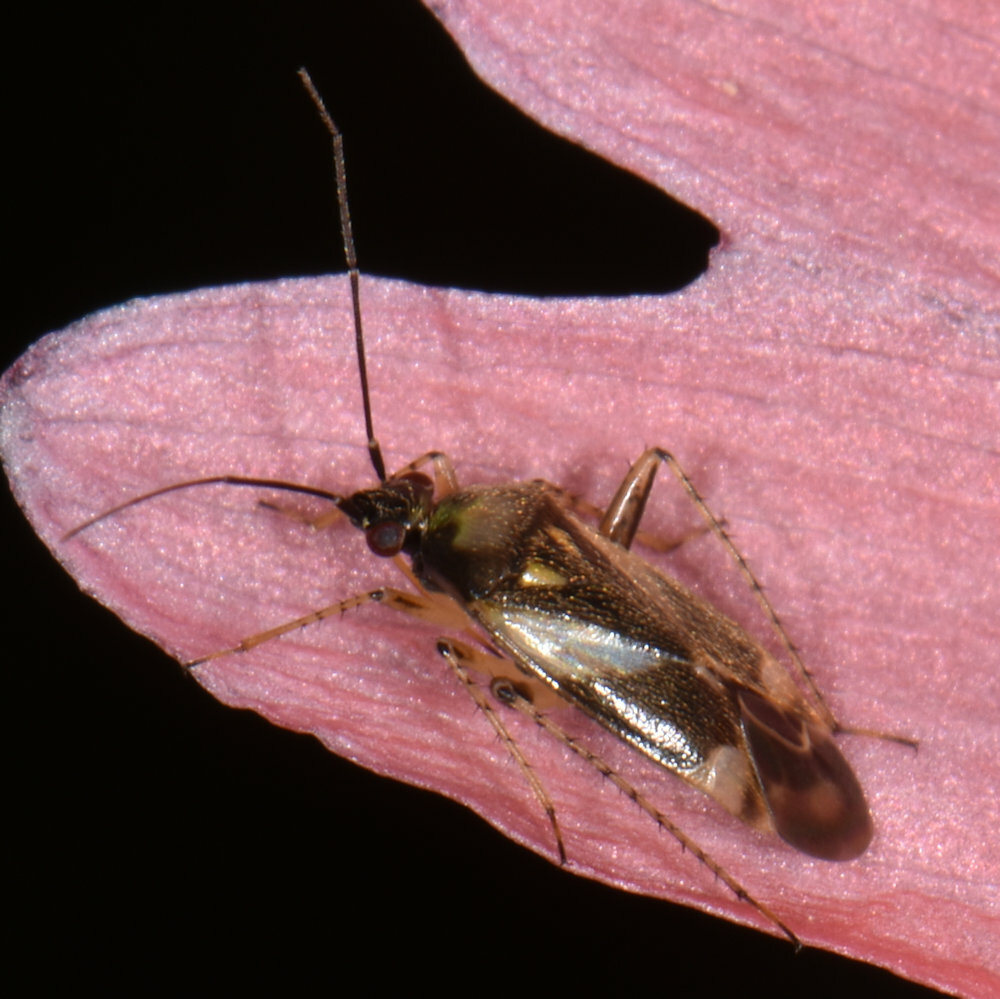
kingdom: Animalia
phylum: Arthropoda
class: Insecta
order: Hemiptera
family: Miridae
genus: Plagiognathus
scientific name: Plagiognathus obscurus
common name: Obscure plant bug
